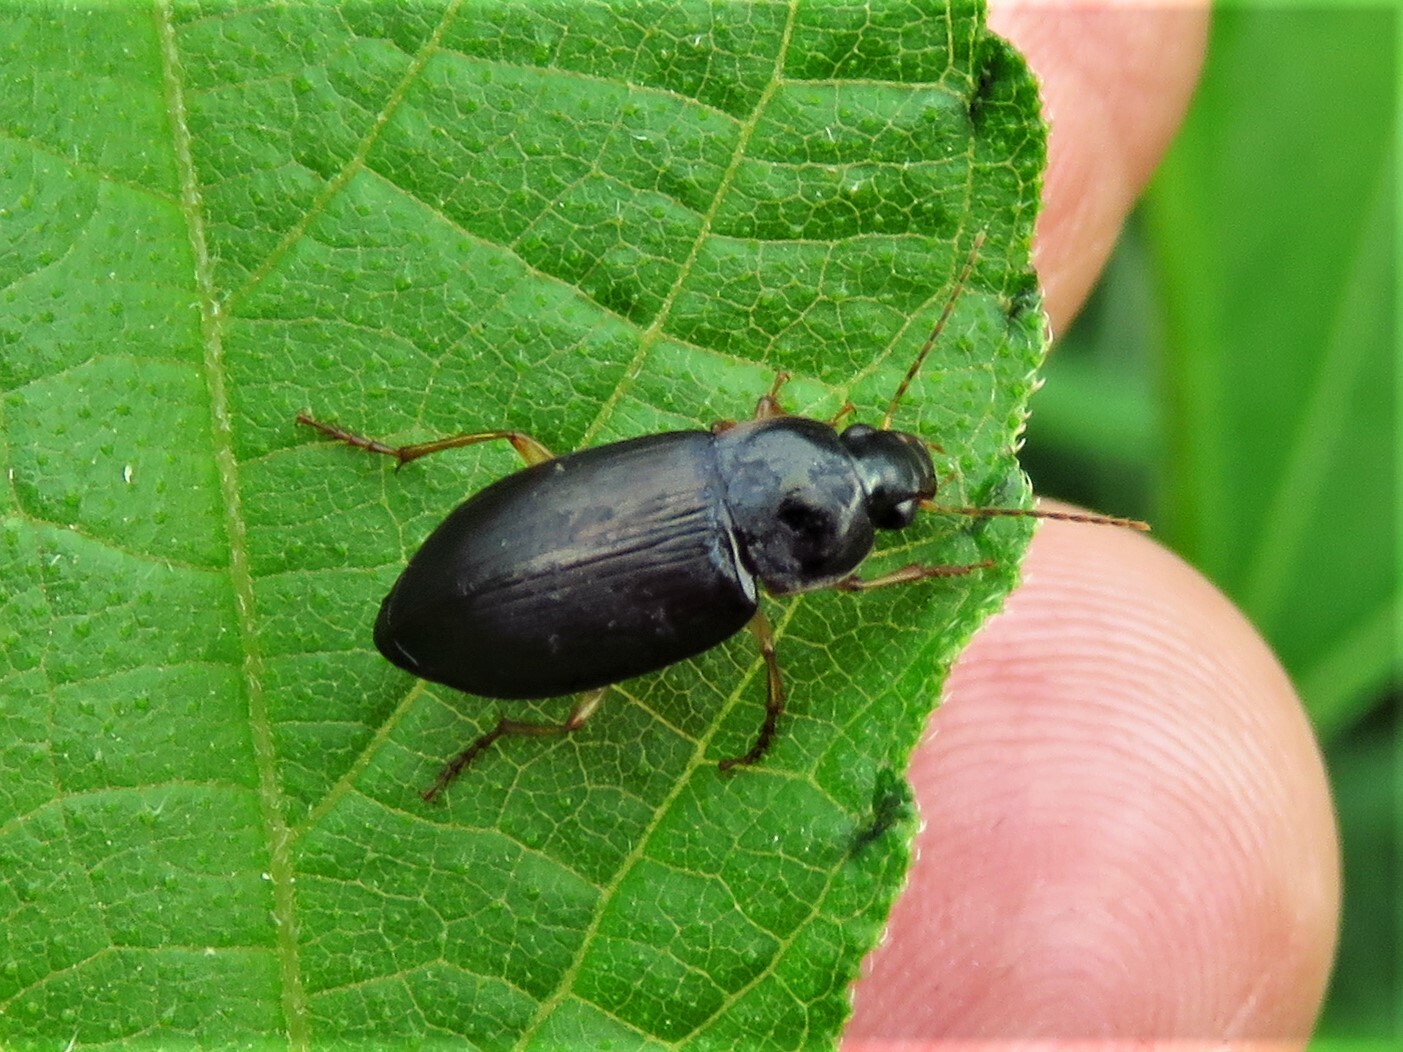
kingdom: Animalia
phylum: Arthropoda
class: Insecta
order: Coleoptera
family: Carabidae
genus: Notiobia
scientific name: Notiobia terminata
